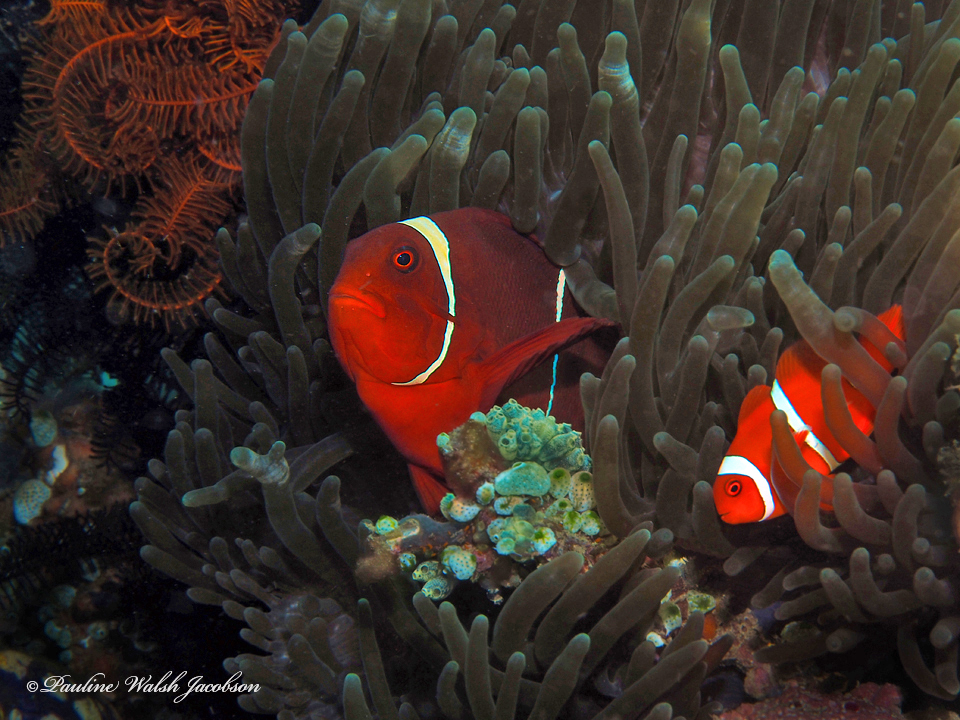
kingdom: Animalia
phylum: Chordata
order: Perciformes
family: Pomacentridae
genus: Premnas
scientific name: Premnas biaculeatus
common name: Spinecheek anemonefish
